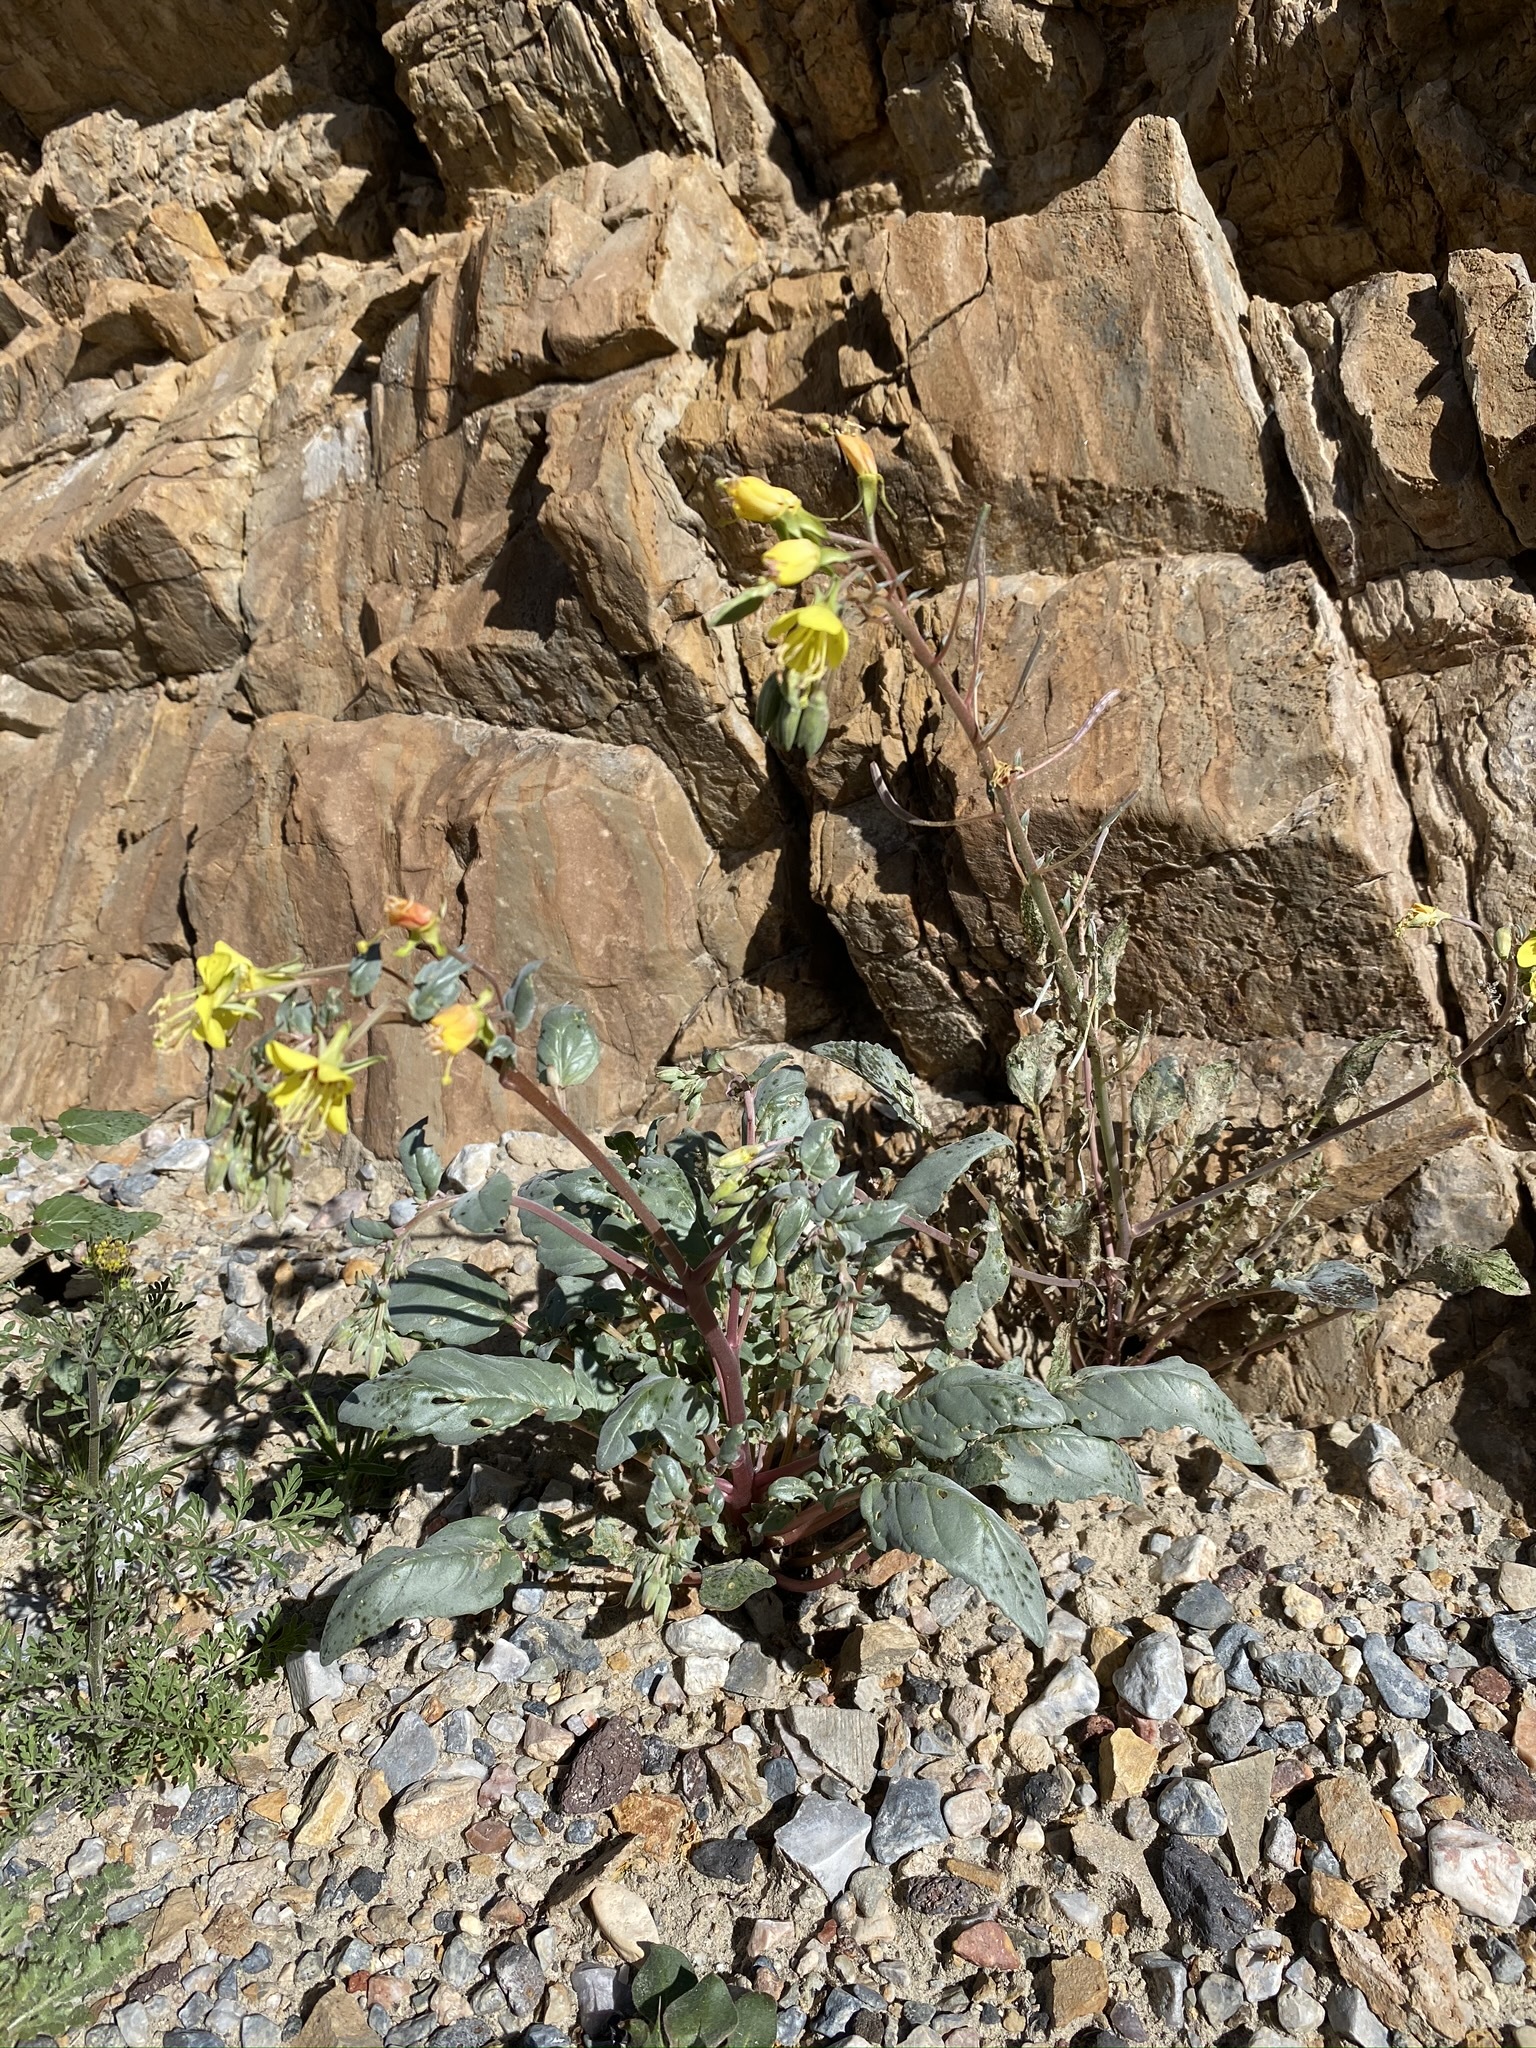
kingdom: Plantae
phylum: Tracheophyta
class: Magnoliopsida
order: Myrtales
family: Onagraceae
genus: Chylismia
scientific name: Chylismia claviformis
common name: Browneyes
